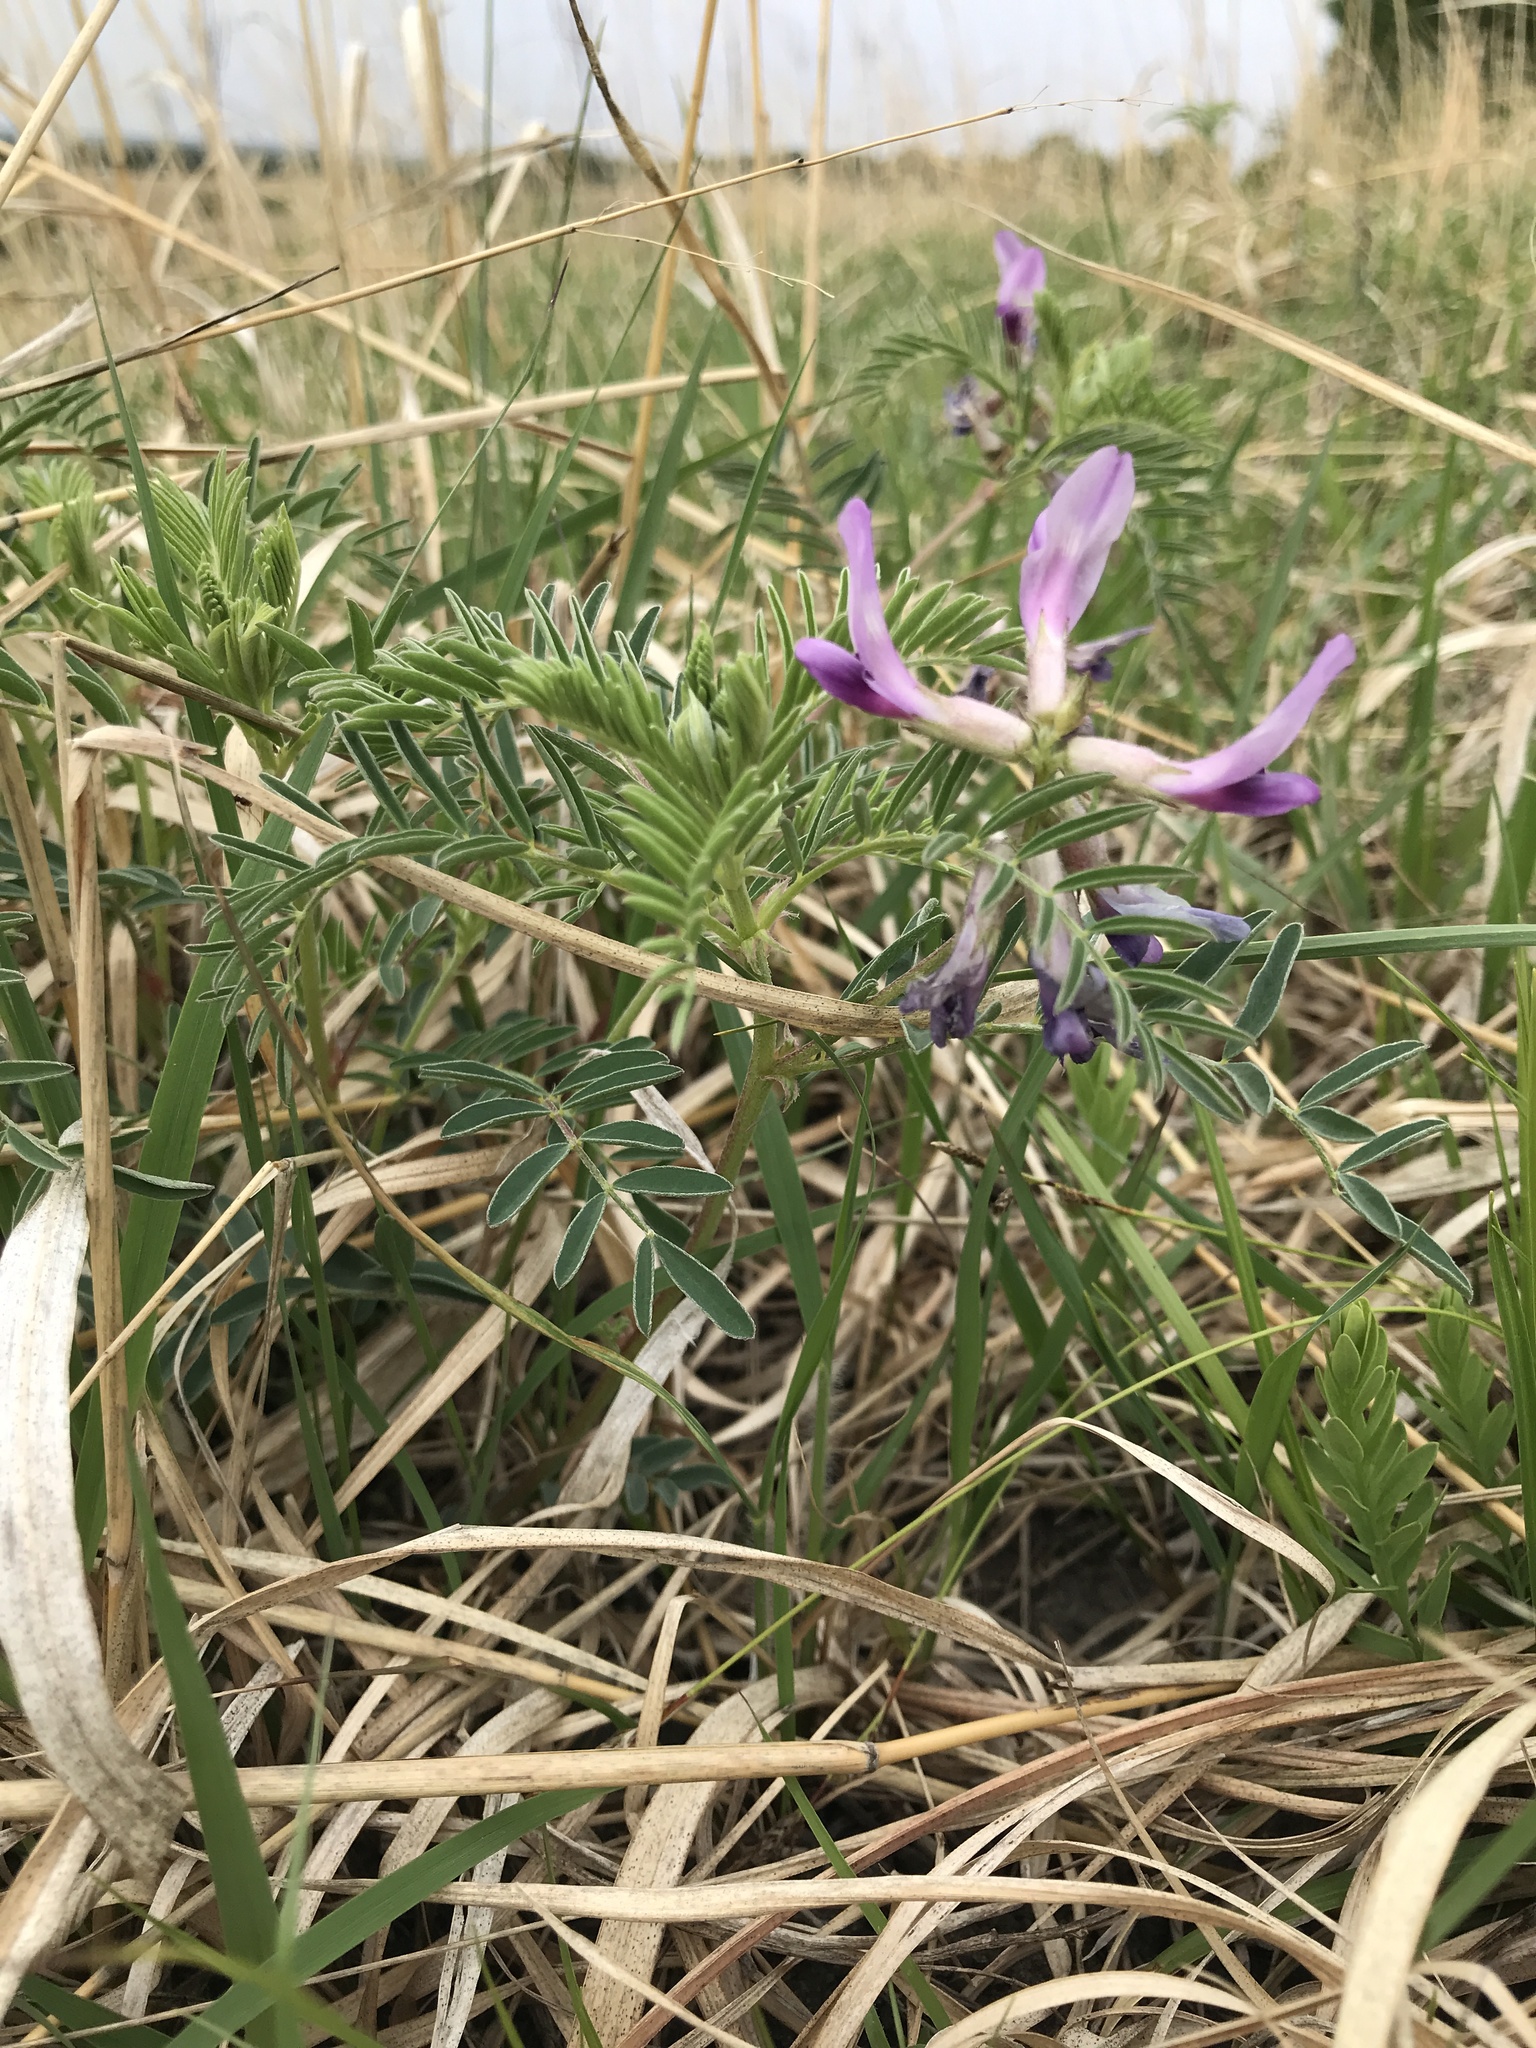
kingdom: Plantae
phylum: Tracheophyta
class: Magnoliopsida
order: Fabales
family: Fabaceae
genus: Astragalus
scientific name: Astragalus crassicarpus
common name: Ground-plum milk-vetch
